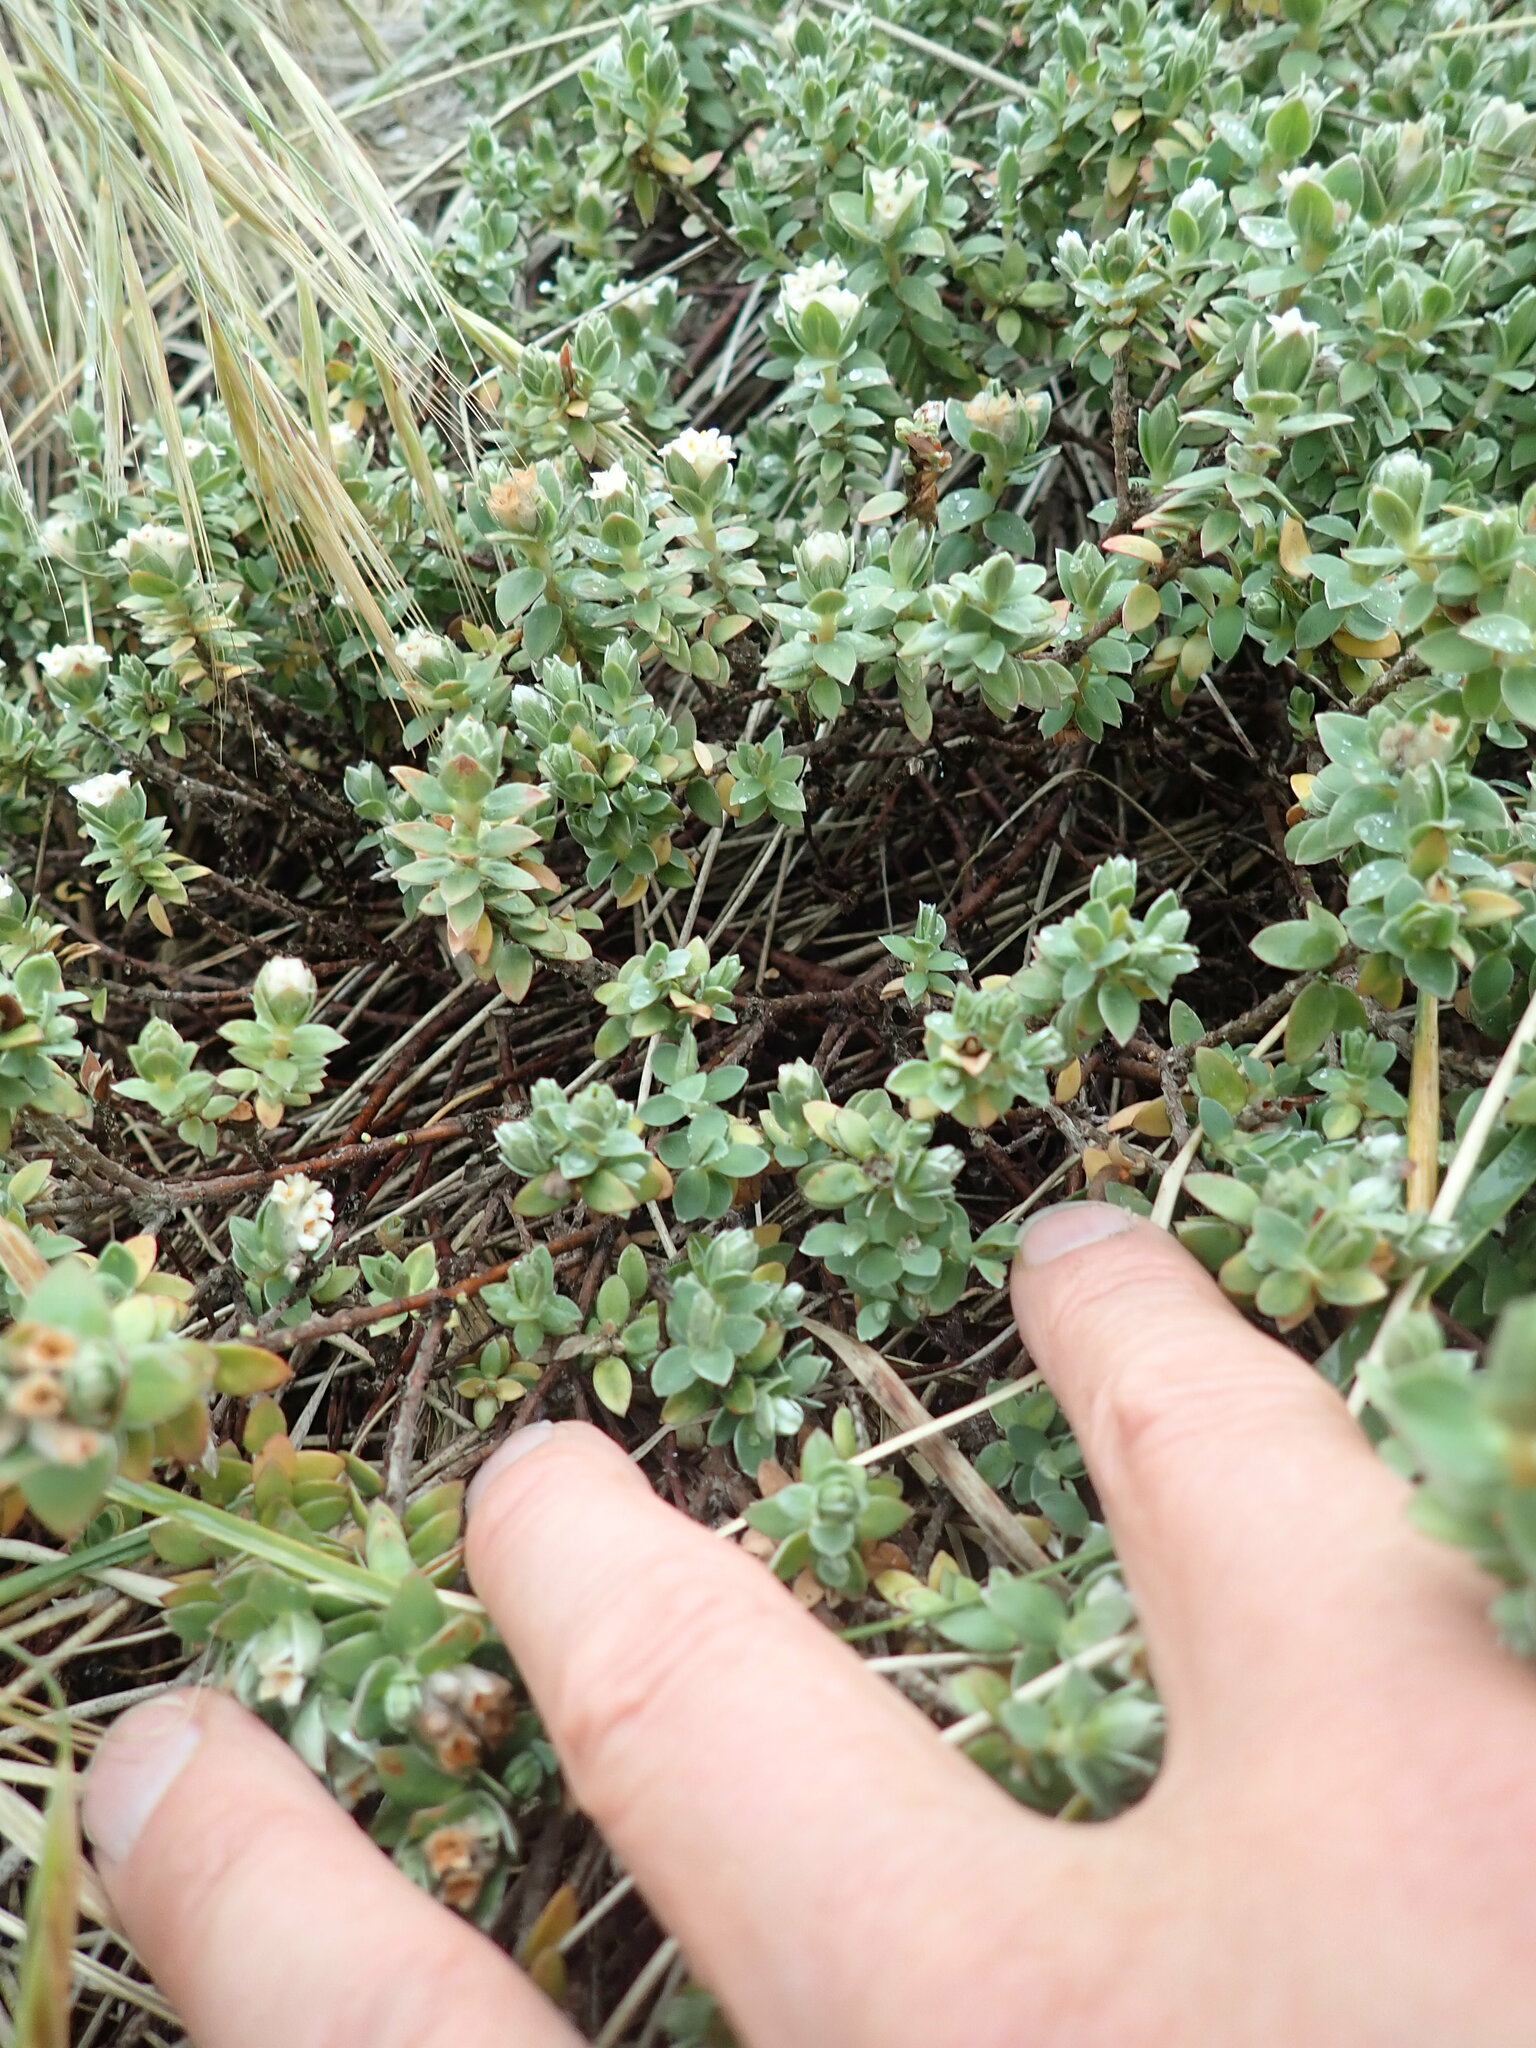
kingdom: Plantae
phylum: Tracheophyta
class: Magnoliopsida
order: Malvales
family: Thymelaeaceae
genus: Pimelea
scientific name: Pimelea villosa
